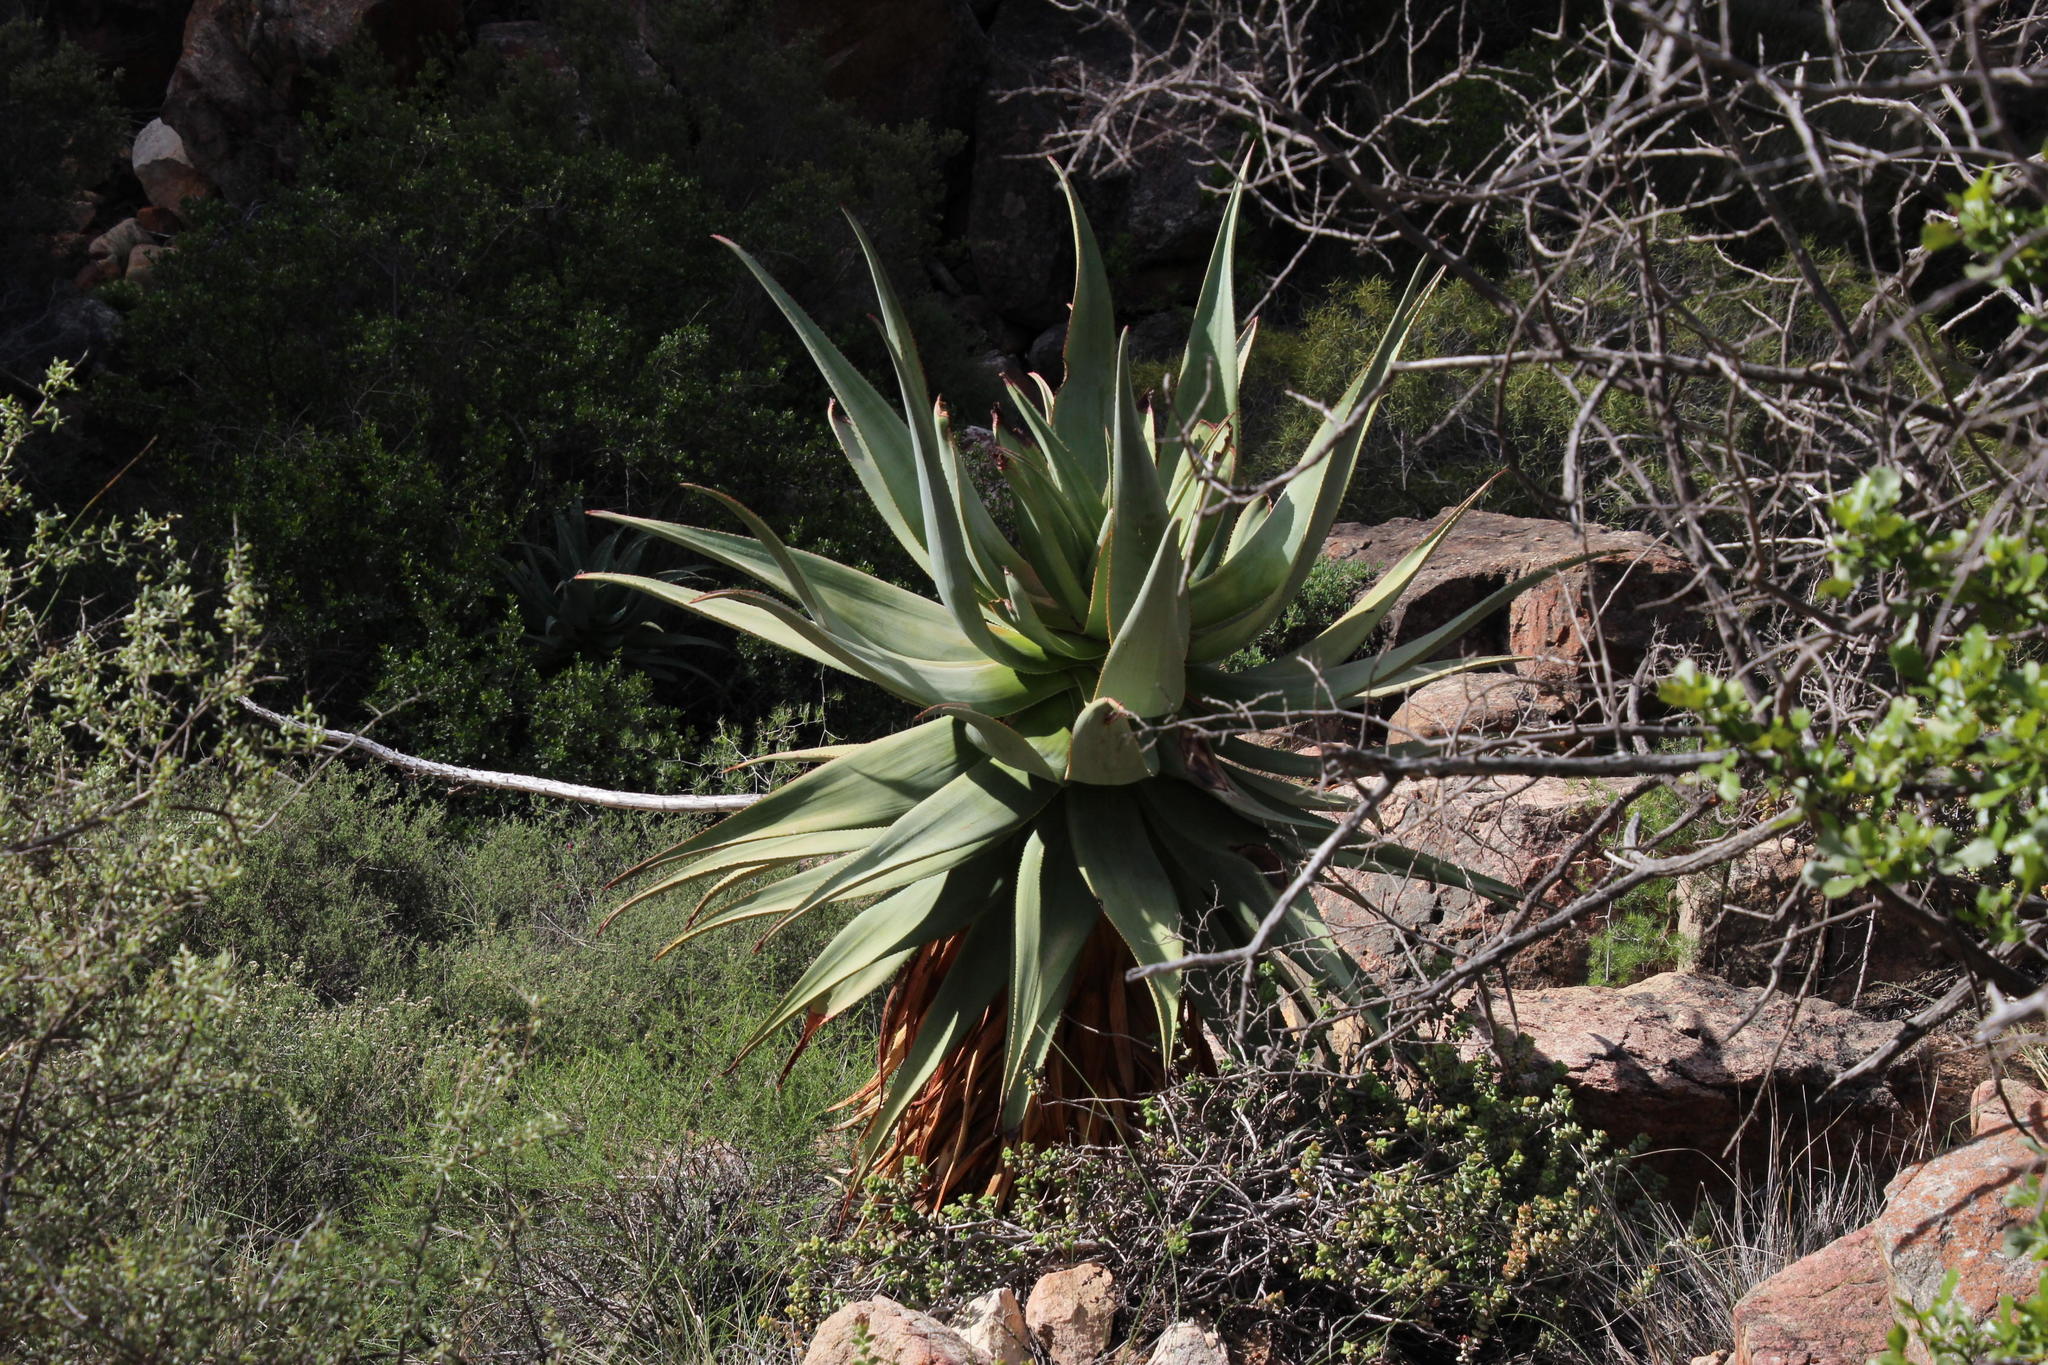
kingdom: Plantae
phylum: Tracheophyta
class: Liliopsida
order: Asparagales
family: Asphodelaceae
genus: Aloe
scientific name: Aloe comosa
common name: Clanwilliam aloe
